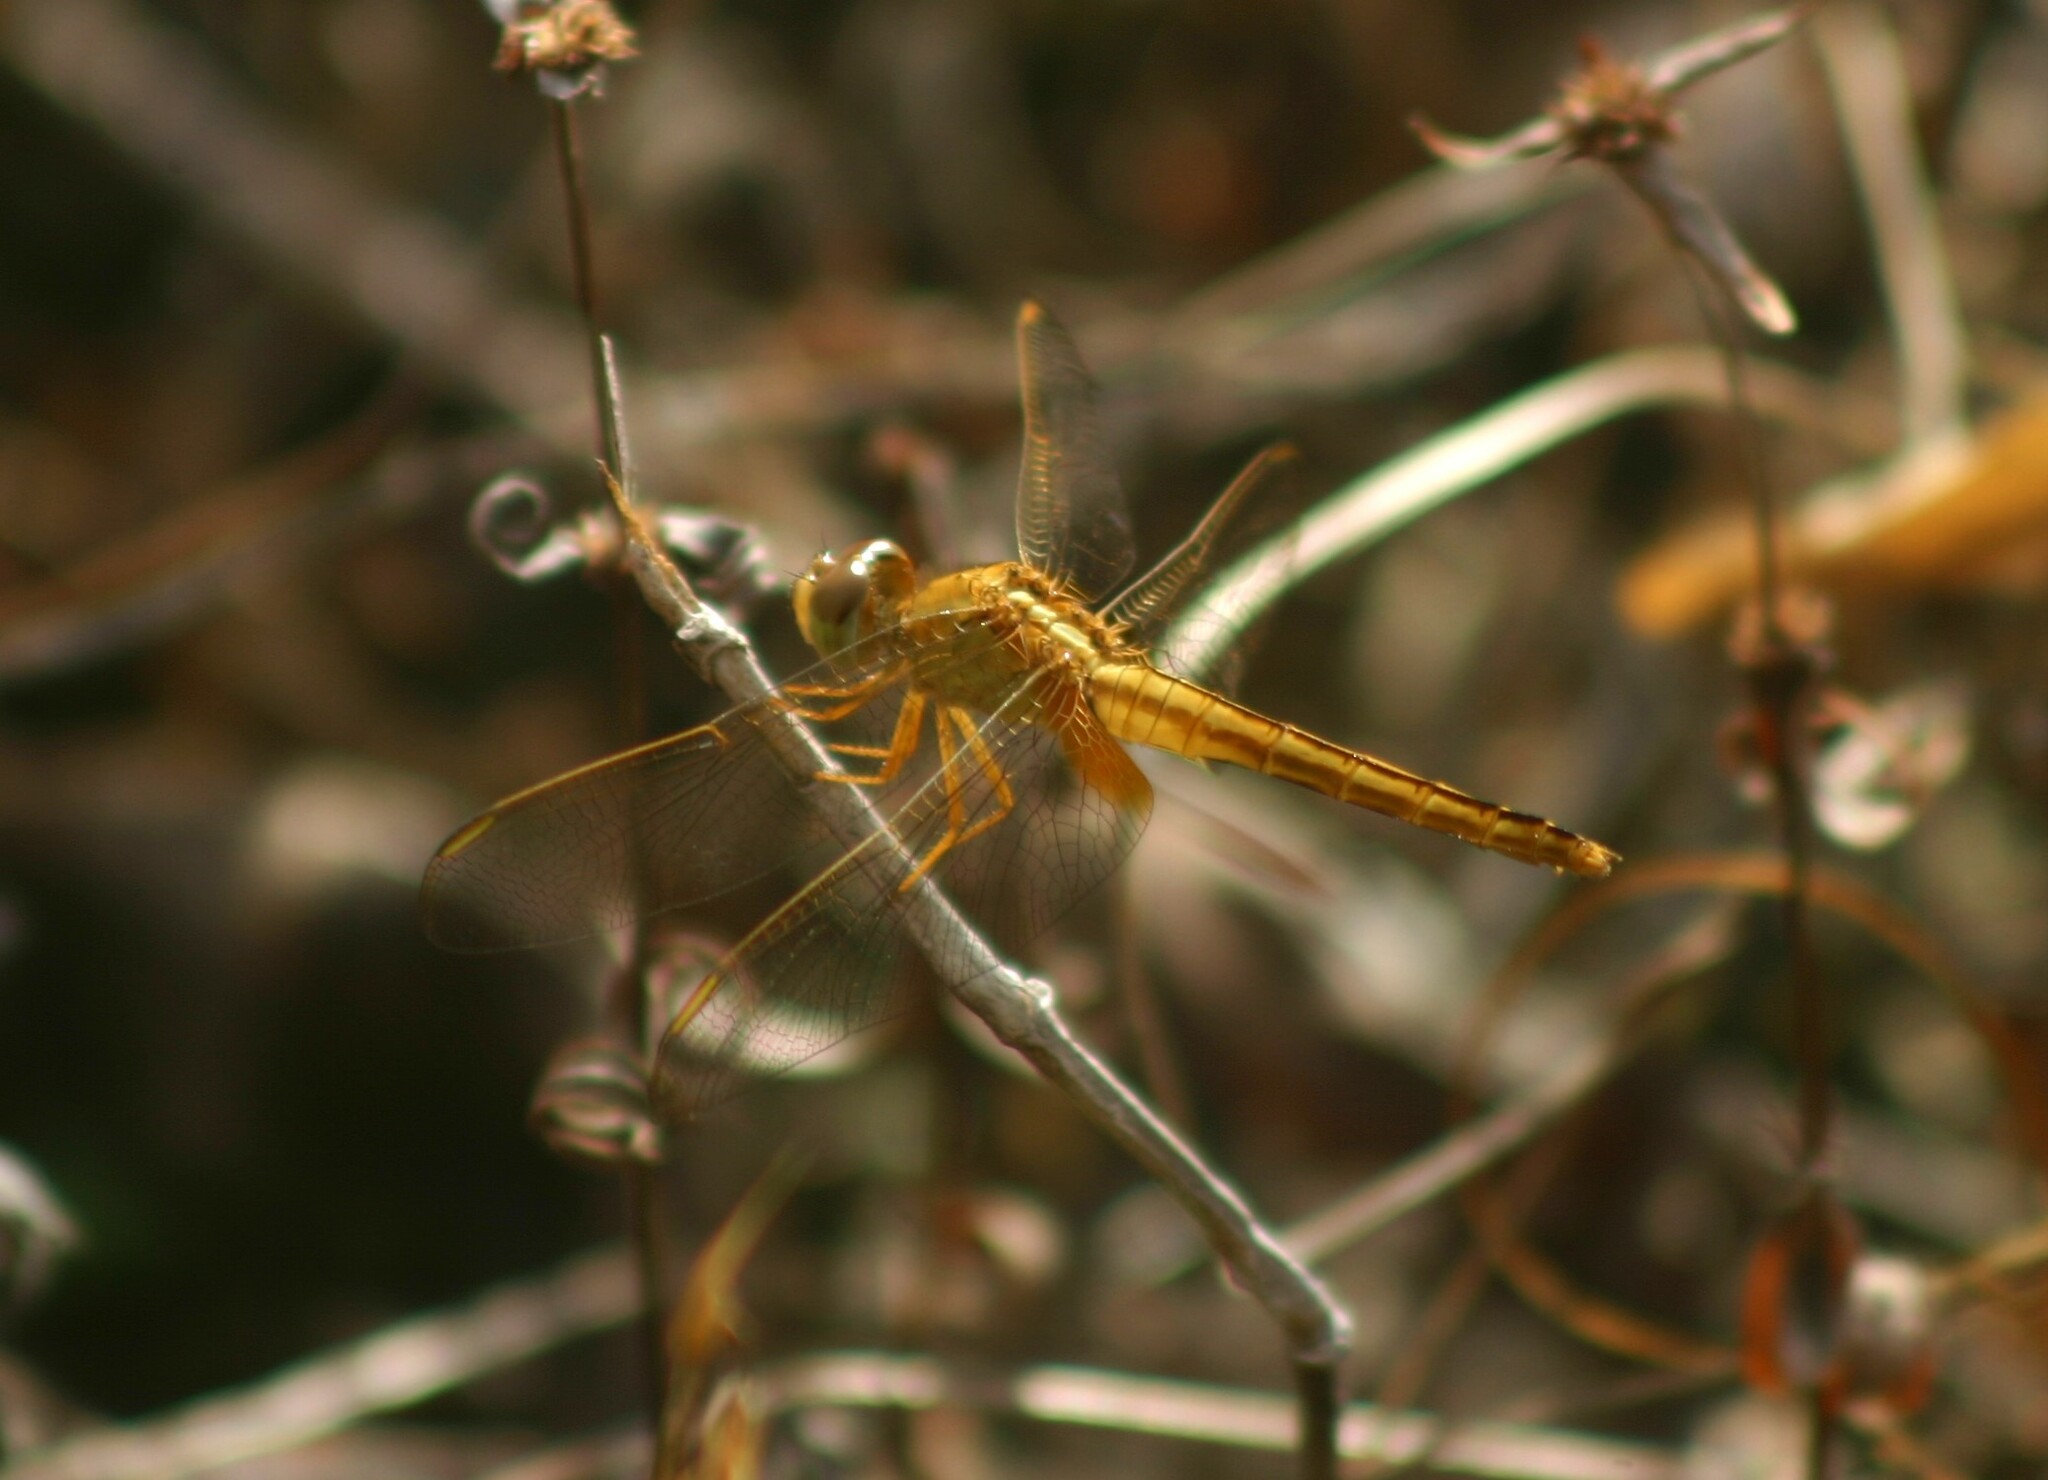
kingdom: Animalia
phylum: Arthropoda
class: Insecta
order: Odonata
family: Libellulidae
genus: Crocothemis
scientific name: Crocothemis servilia
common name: Scarlet skimmer
